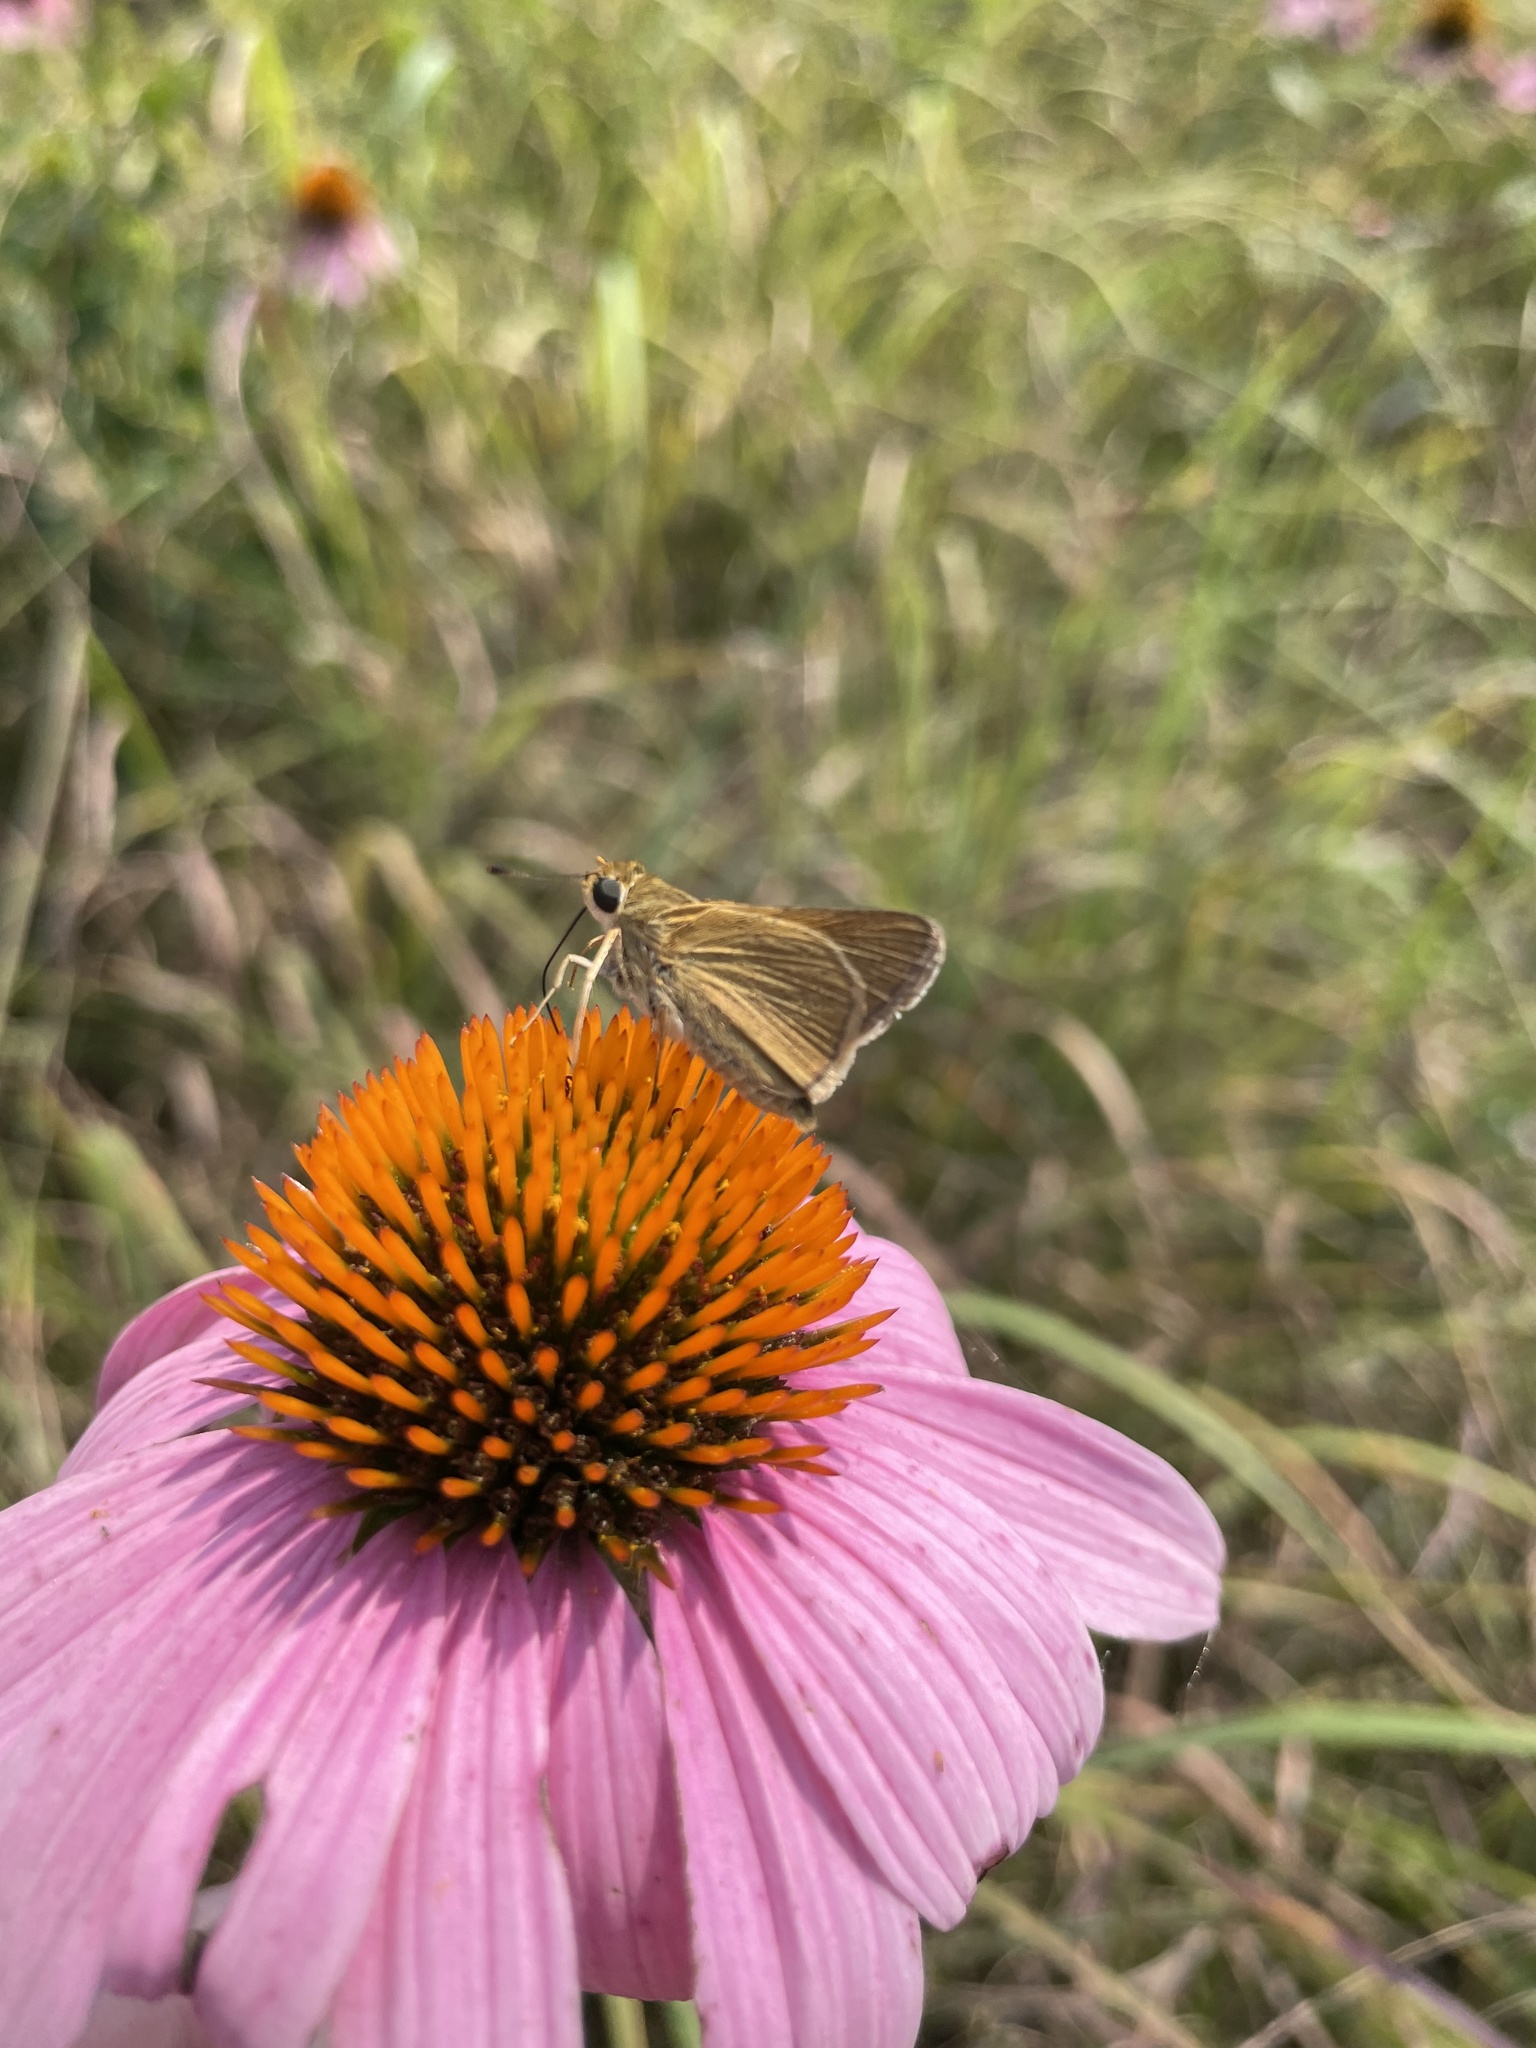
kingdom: Animalia
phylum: Arthropoda
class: Insecta
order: Lepidoptera
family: Hesperiidae
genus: Polites
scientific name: Polites themistocles
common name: Tawny-edged skipper
